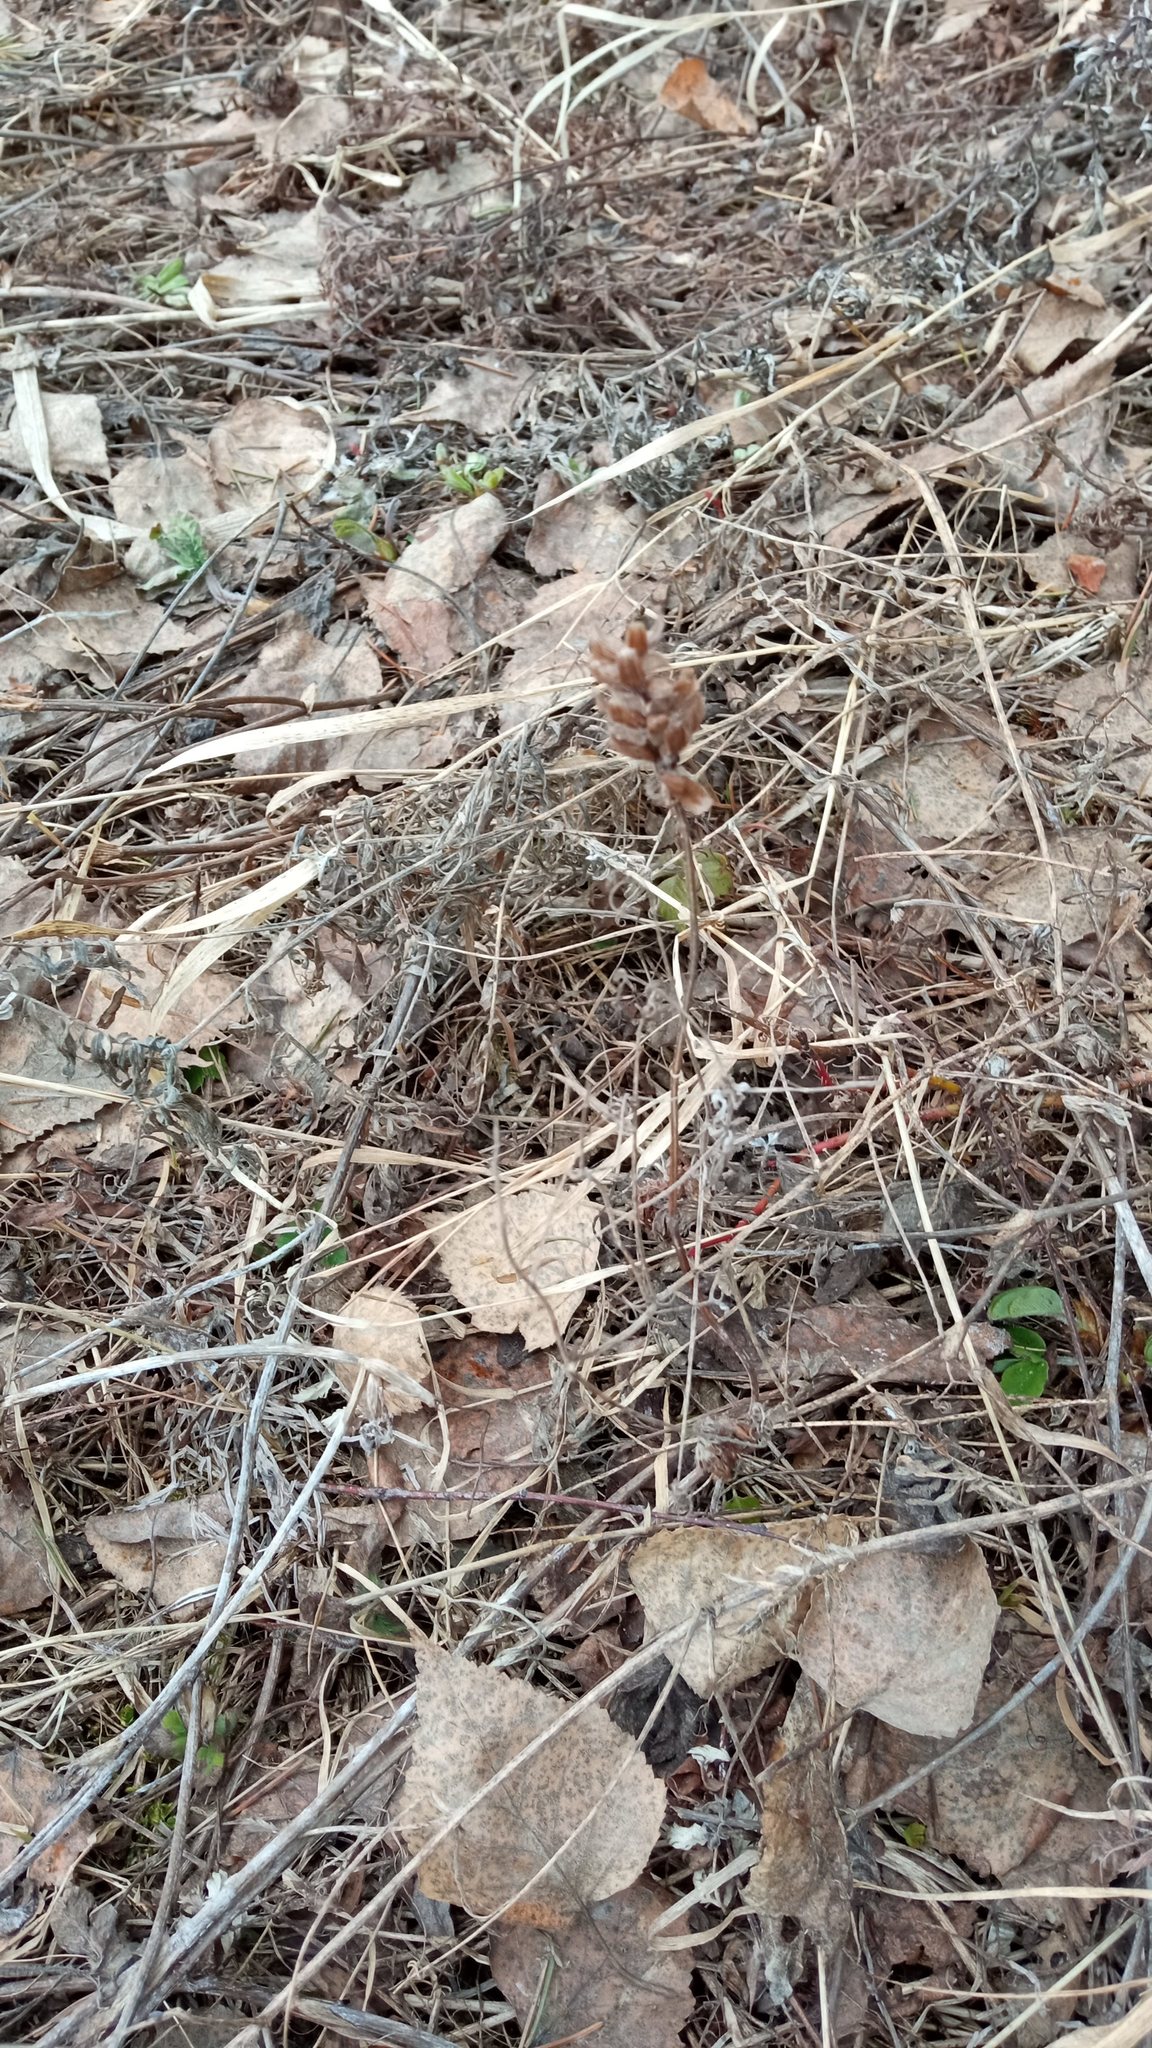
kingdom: Plantae
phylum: Tracheophyta
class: Magnoliopsida
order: Lamiales
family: Lamiaceae
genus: Prunella
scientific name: Prunella vulgaris
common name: Heal-all
